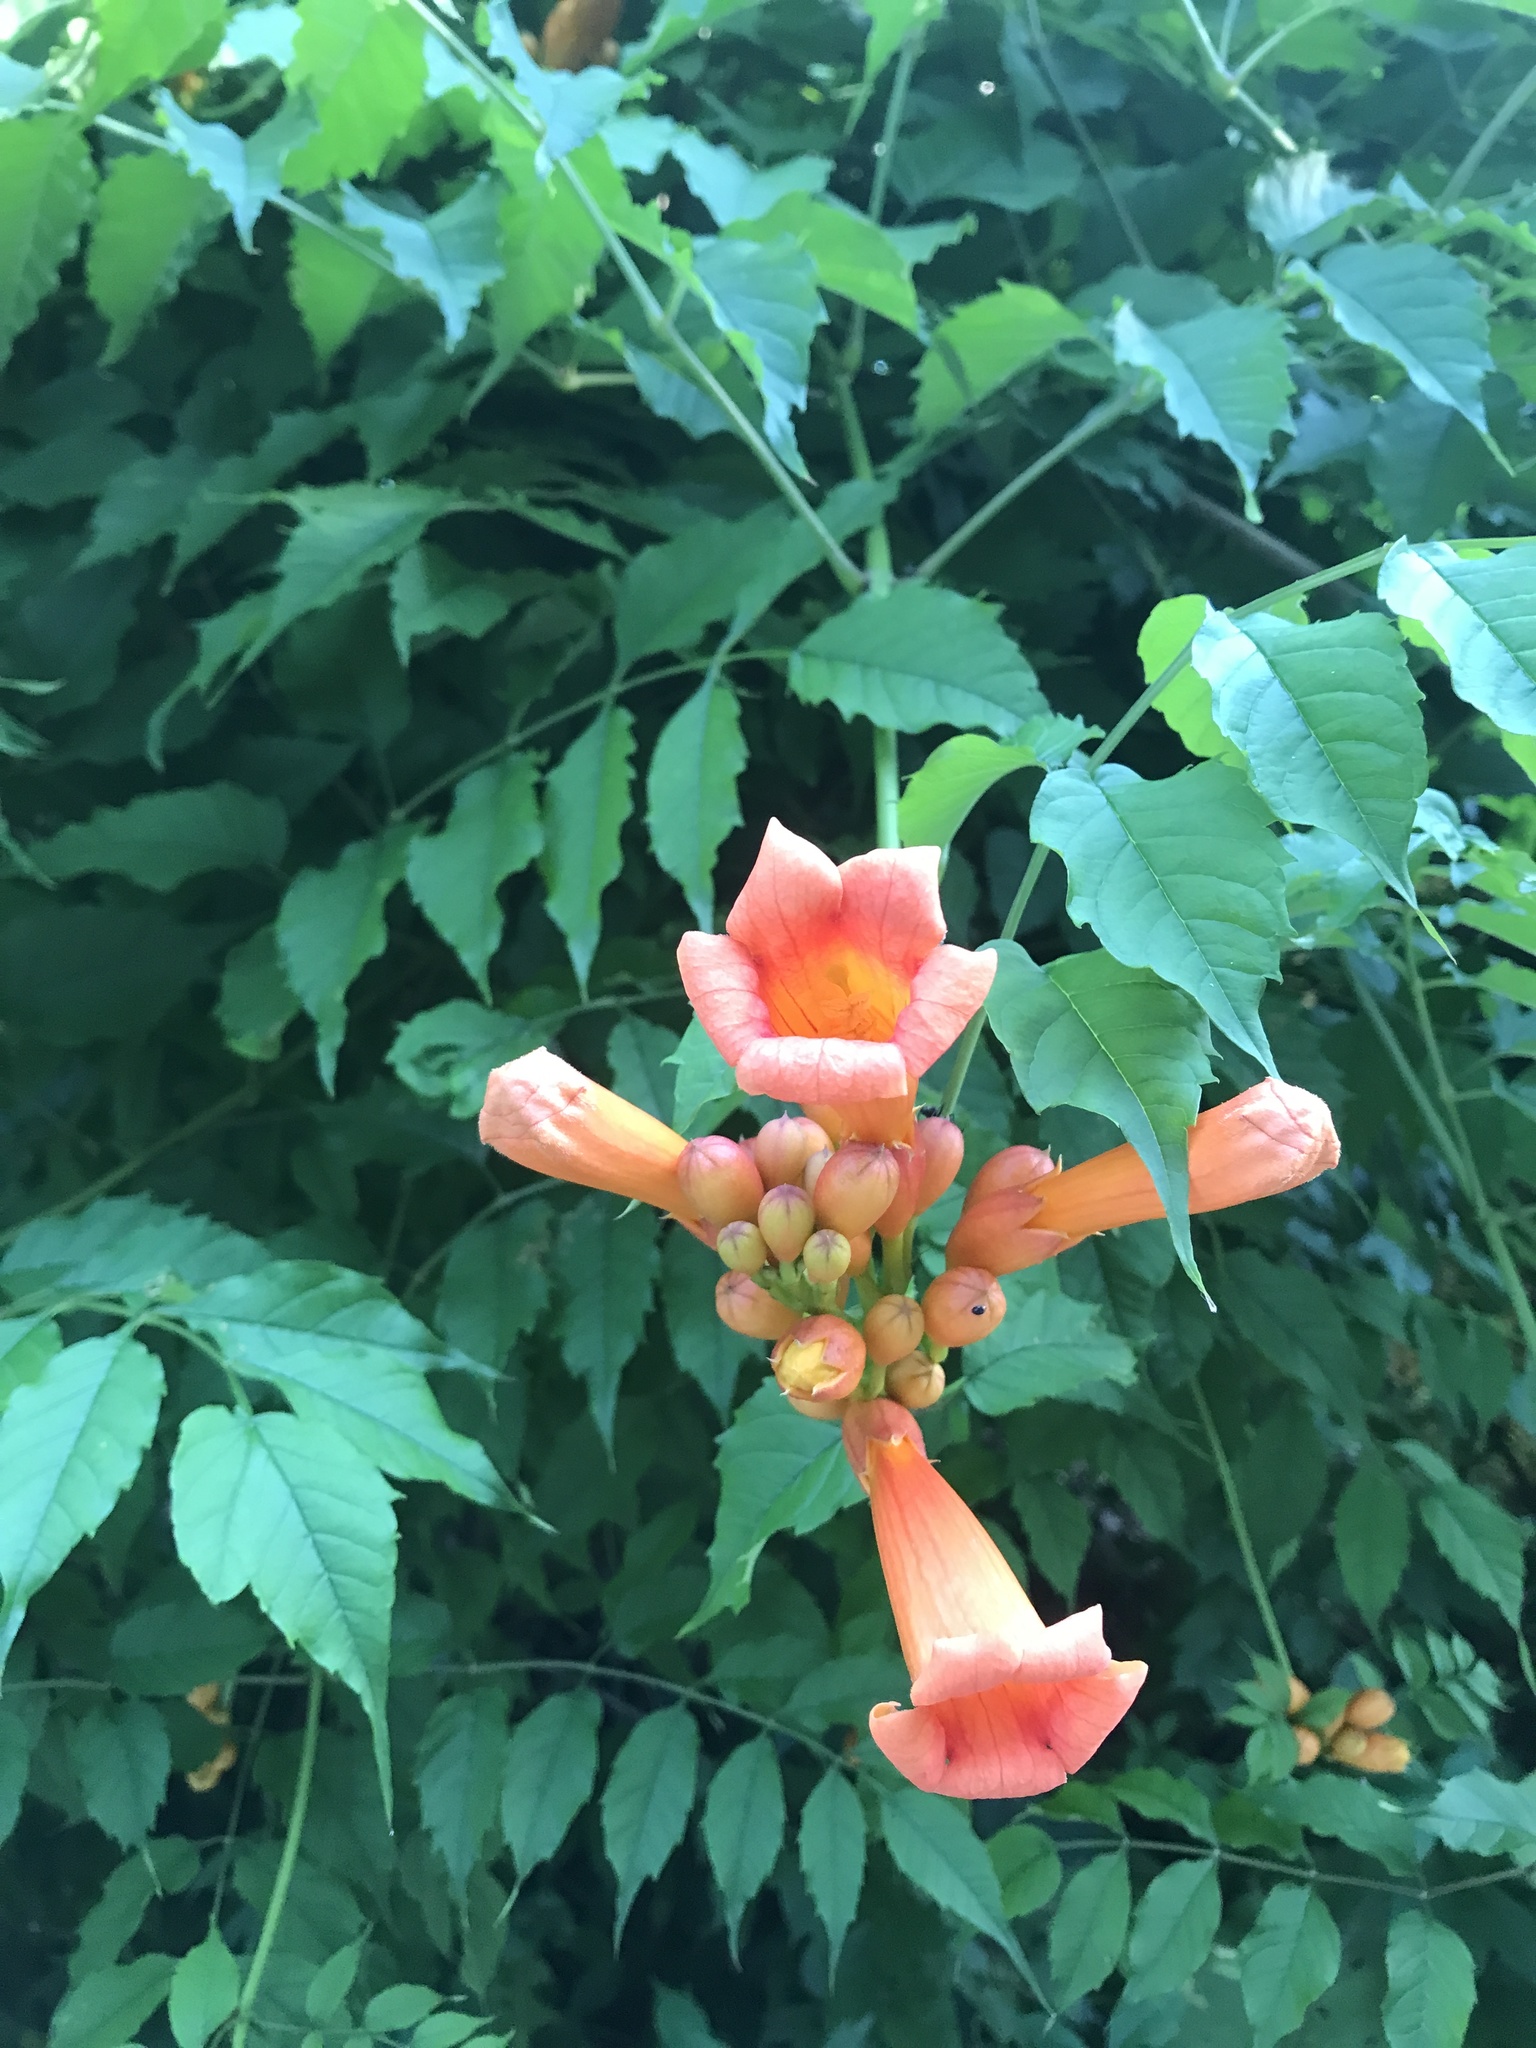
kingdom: Plantae
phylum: Tracheophyta
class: Magnoliopsida
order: Lamiales
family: Bignoniaceae
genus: Campsis
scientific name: Campsis radicans
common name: Trumpet-creeper
